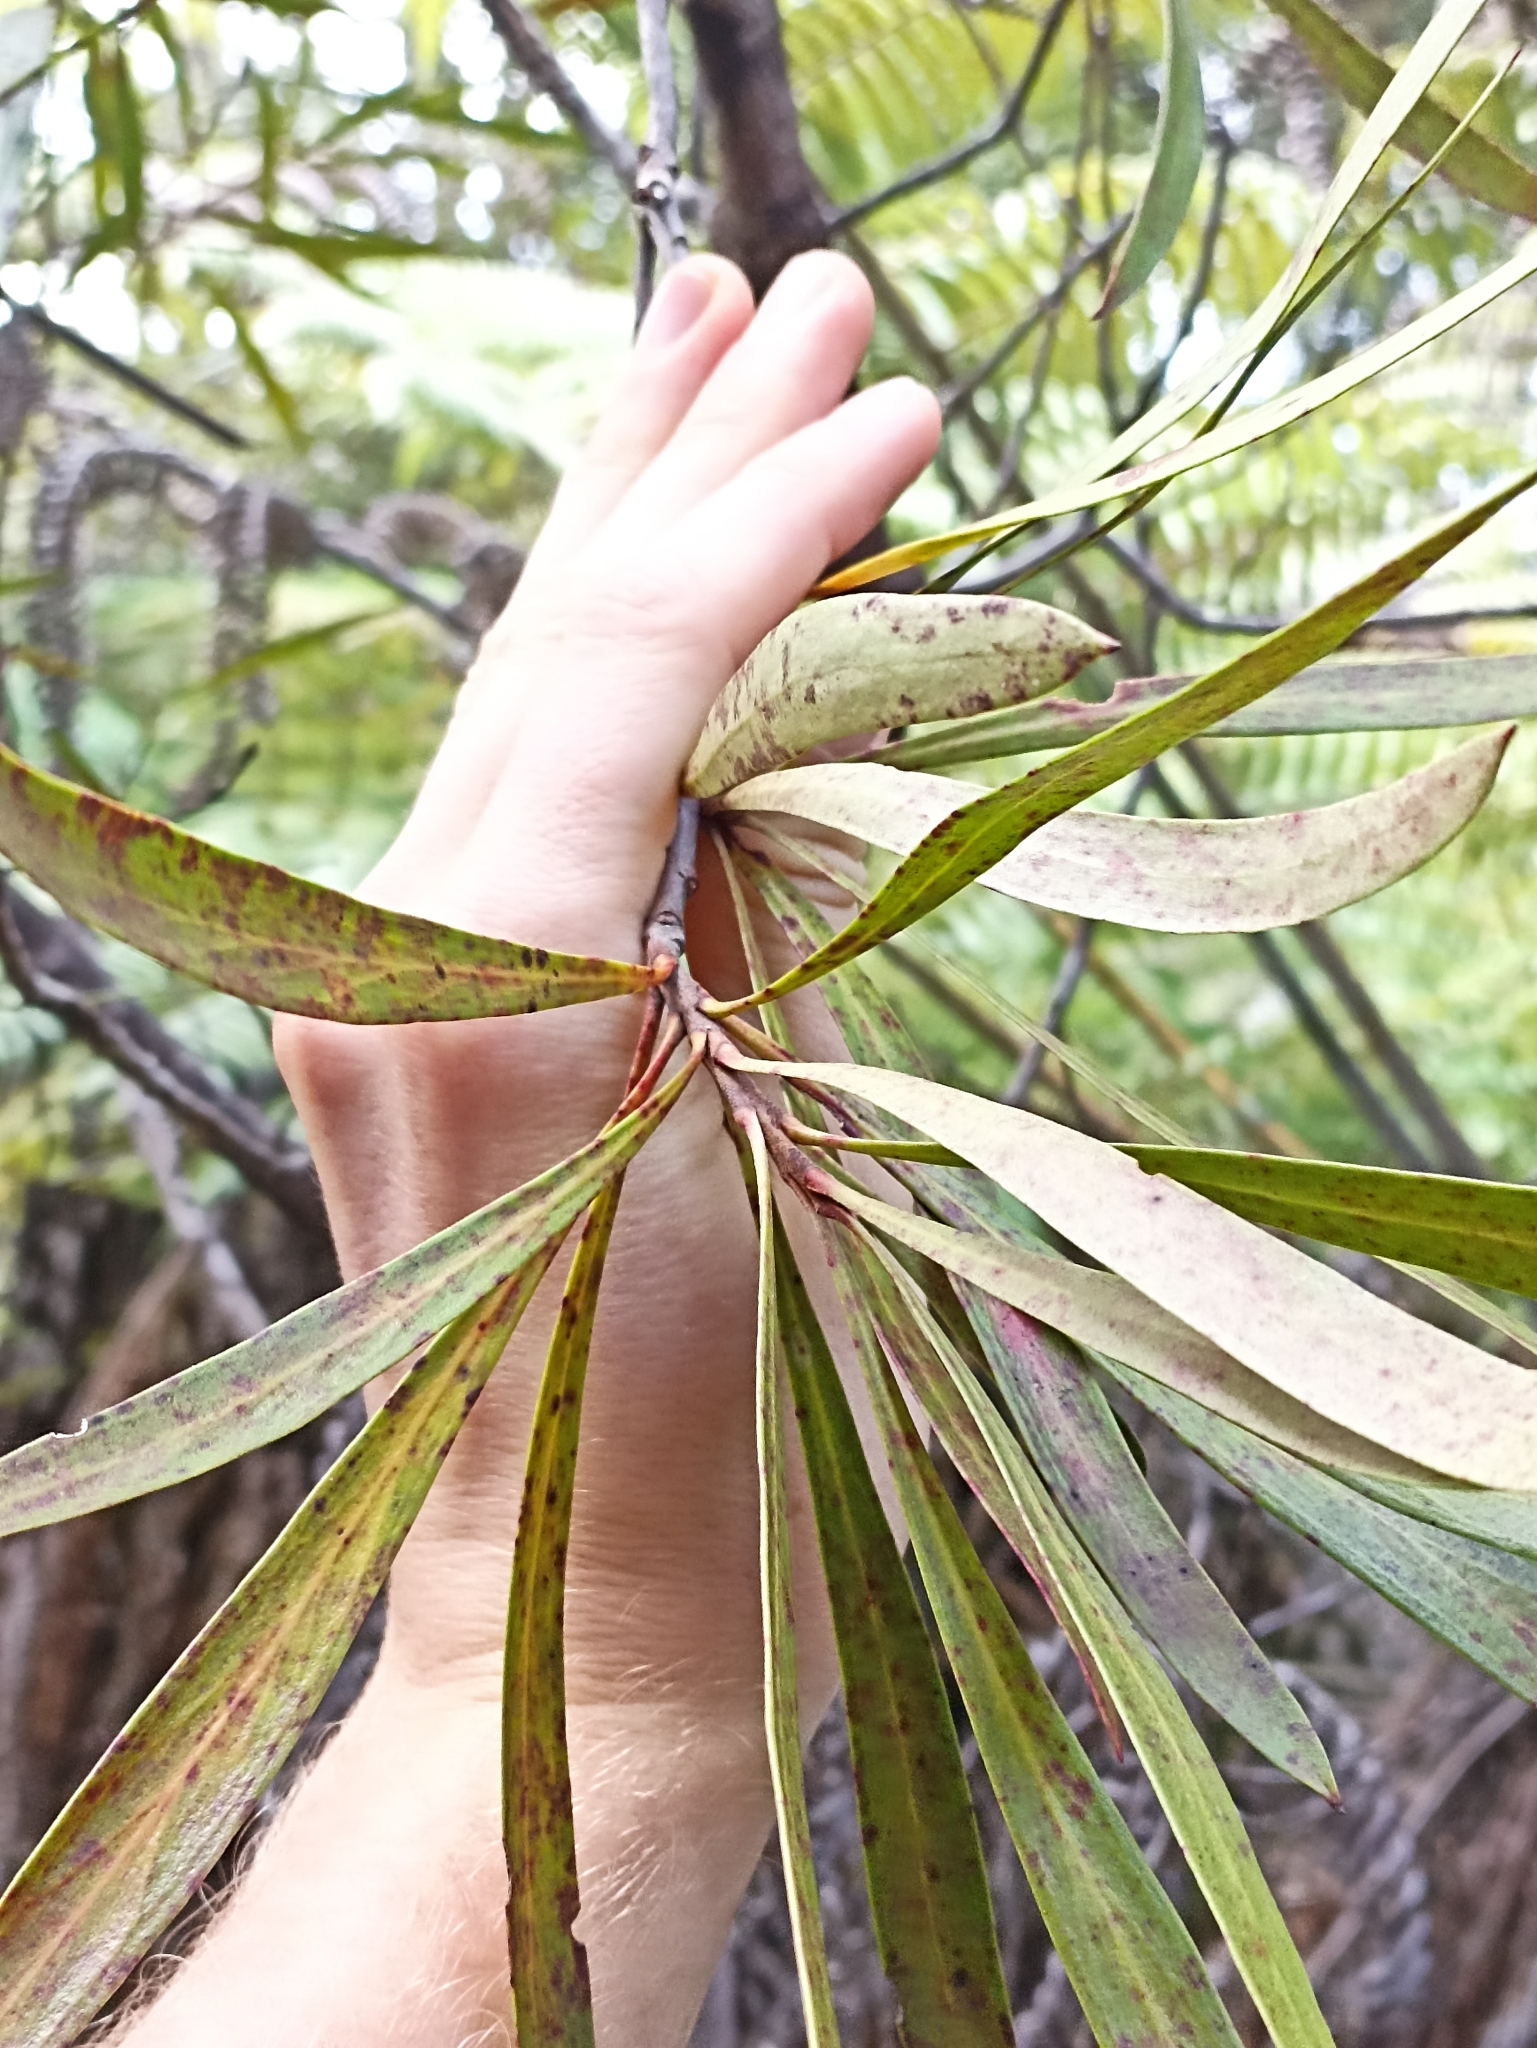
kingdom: Plantae
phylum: Tracheophyta
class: Magnoliopsida
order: Proteales
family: Proteaceae
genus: Toronia
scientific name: Toronia toru
